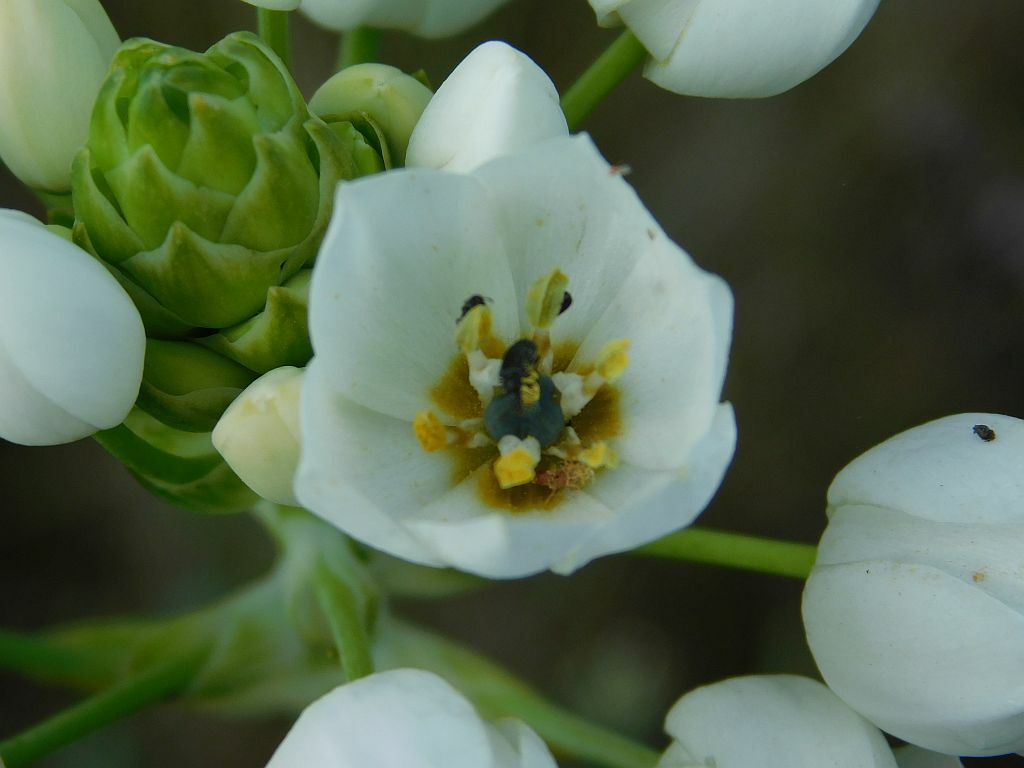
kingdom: Plantae
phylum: Tracheophyta
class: Liliopsida
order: Asparagales
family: Asparagaceae
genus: Ornithogalum
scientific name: Ornithogalum thyrsoides
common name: Chincherinchee
